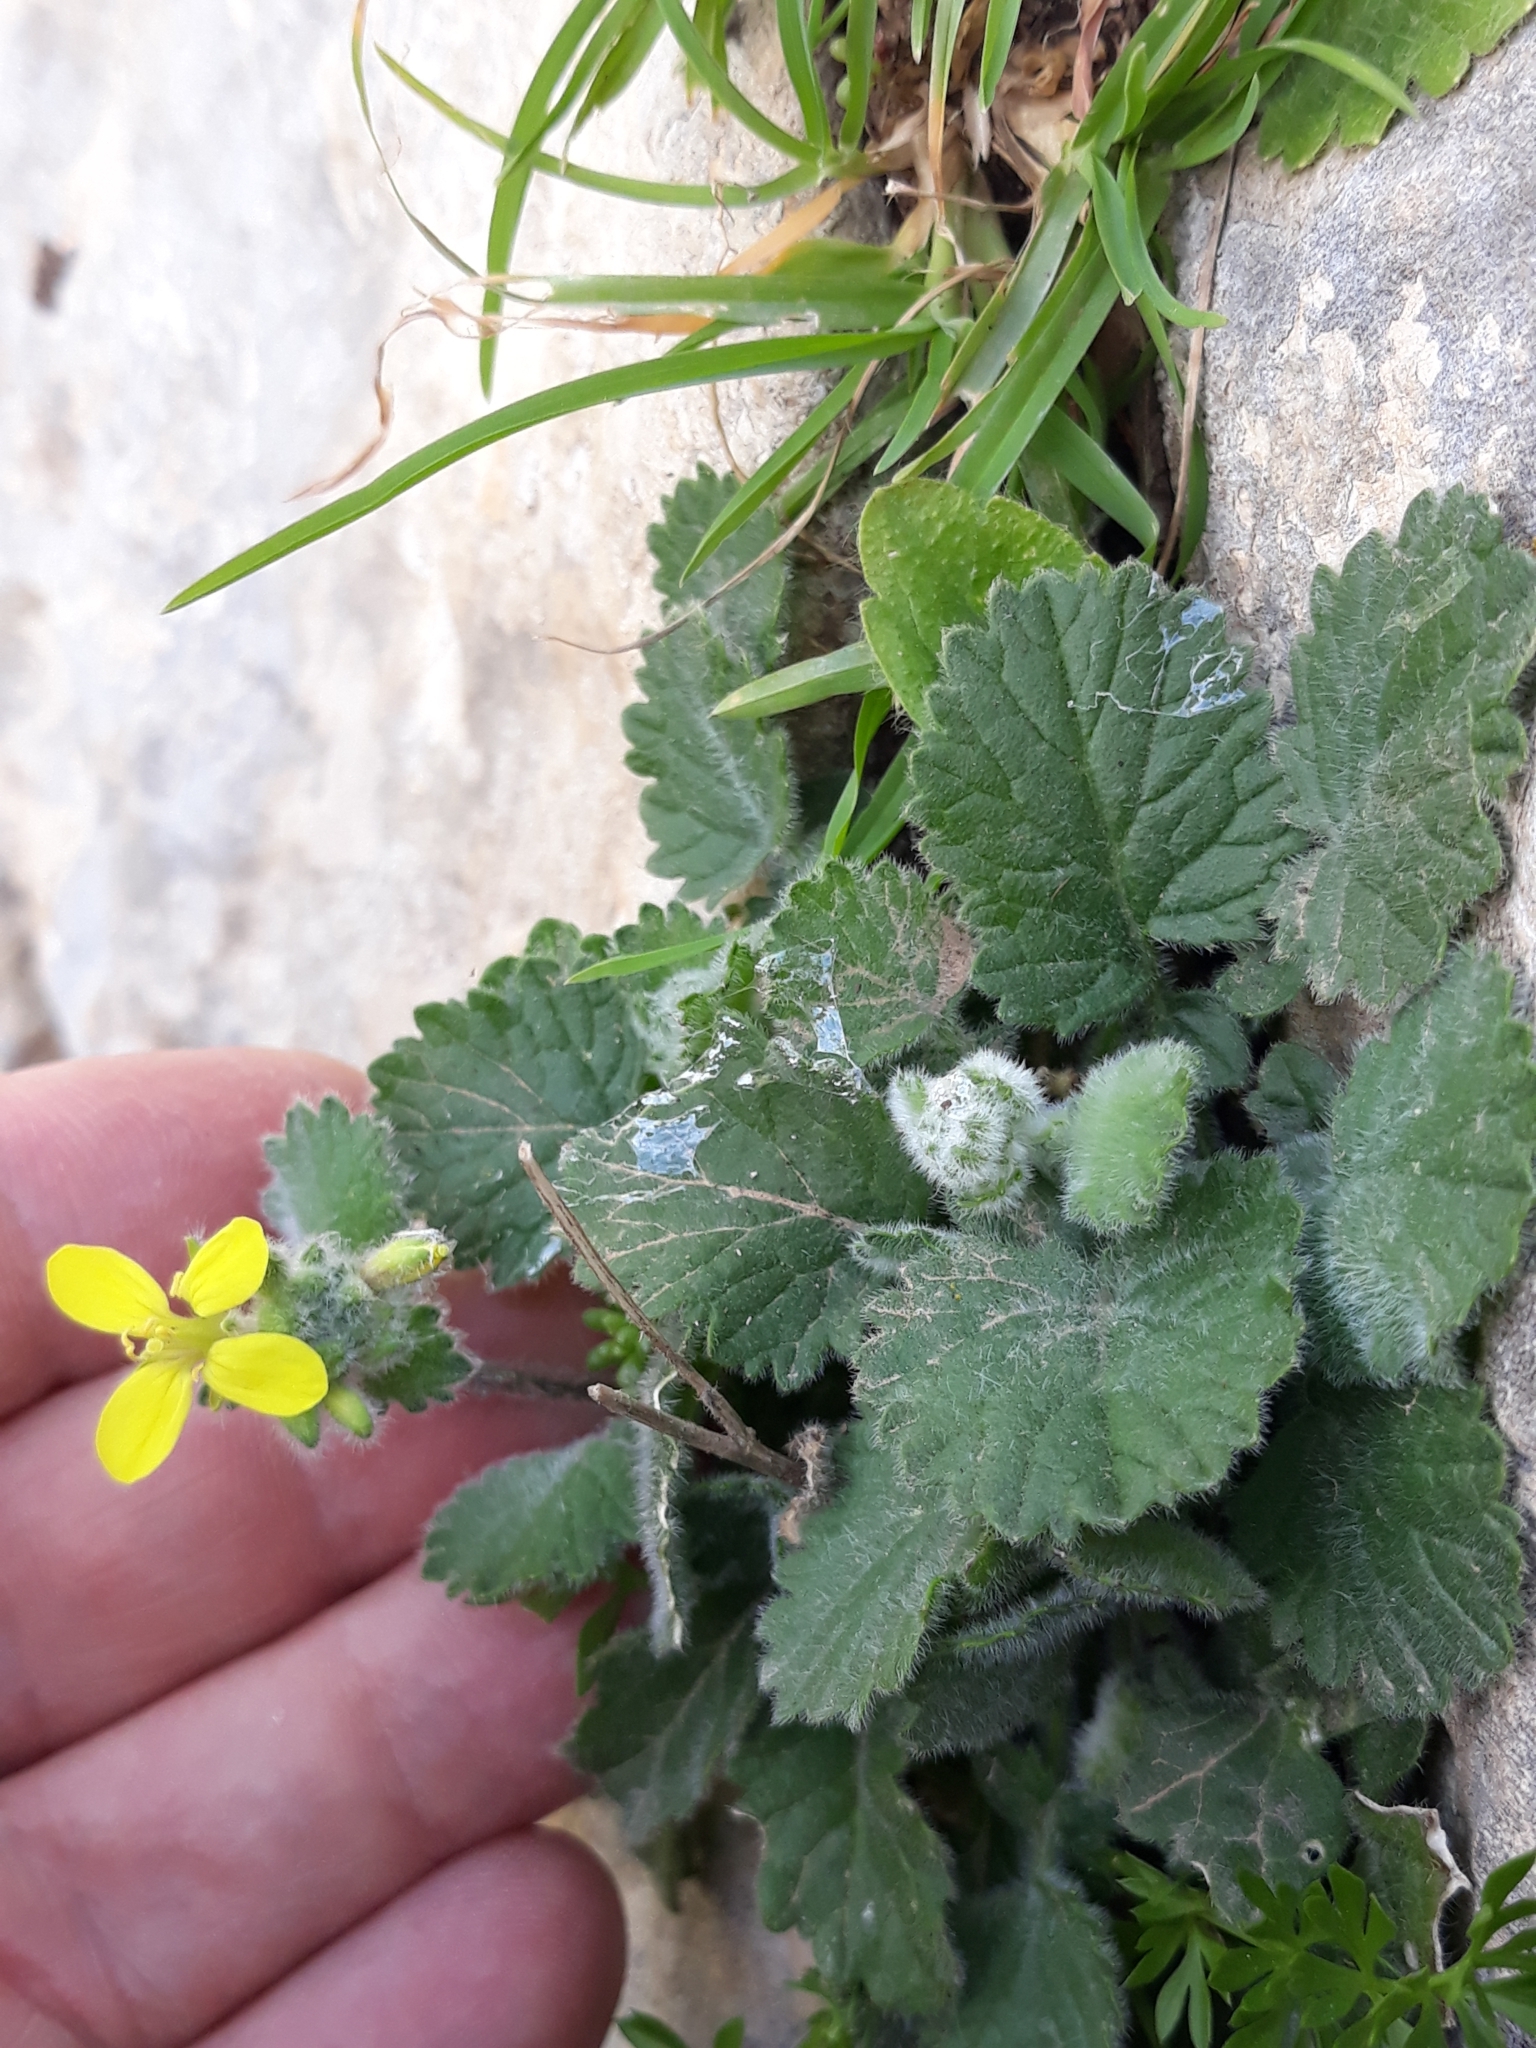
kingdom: Plantae
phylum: Tracheophyta
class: Magnoliopsida
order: Brassicales
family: Brassicaceae
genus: Sinapis
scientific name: Sinapis pubescens
